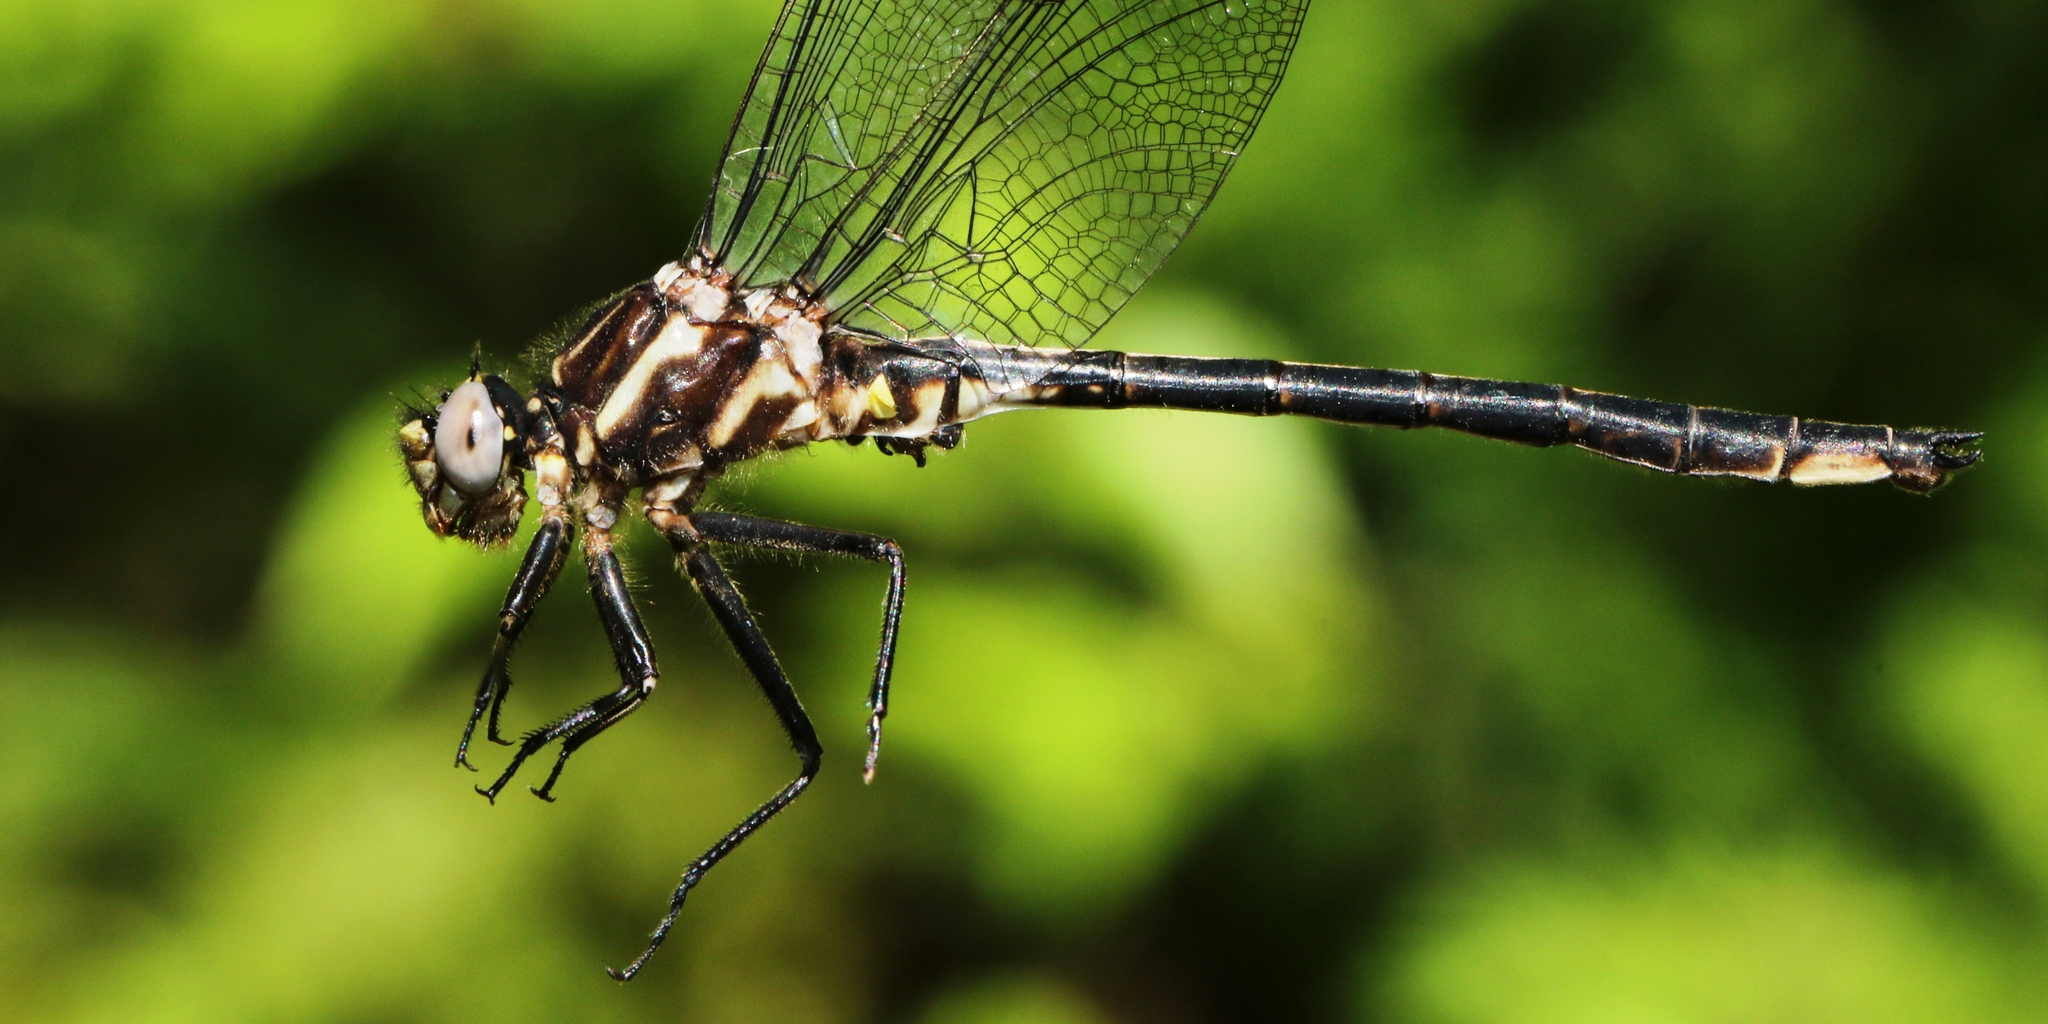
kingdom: Animalia
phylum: Arthropoda
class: Insecta
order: Odonata
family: Gomphidae
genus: Phanogomphus
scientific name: Phanogomphus spicatus
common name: Dusky clubtail
